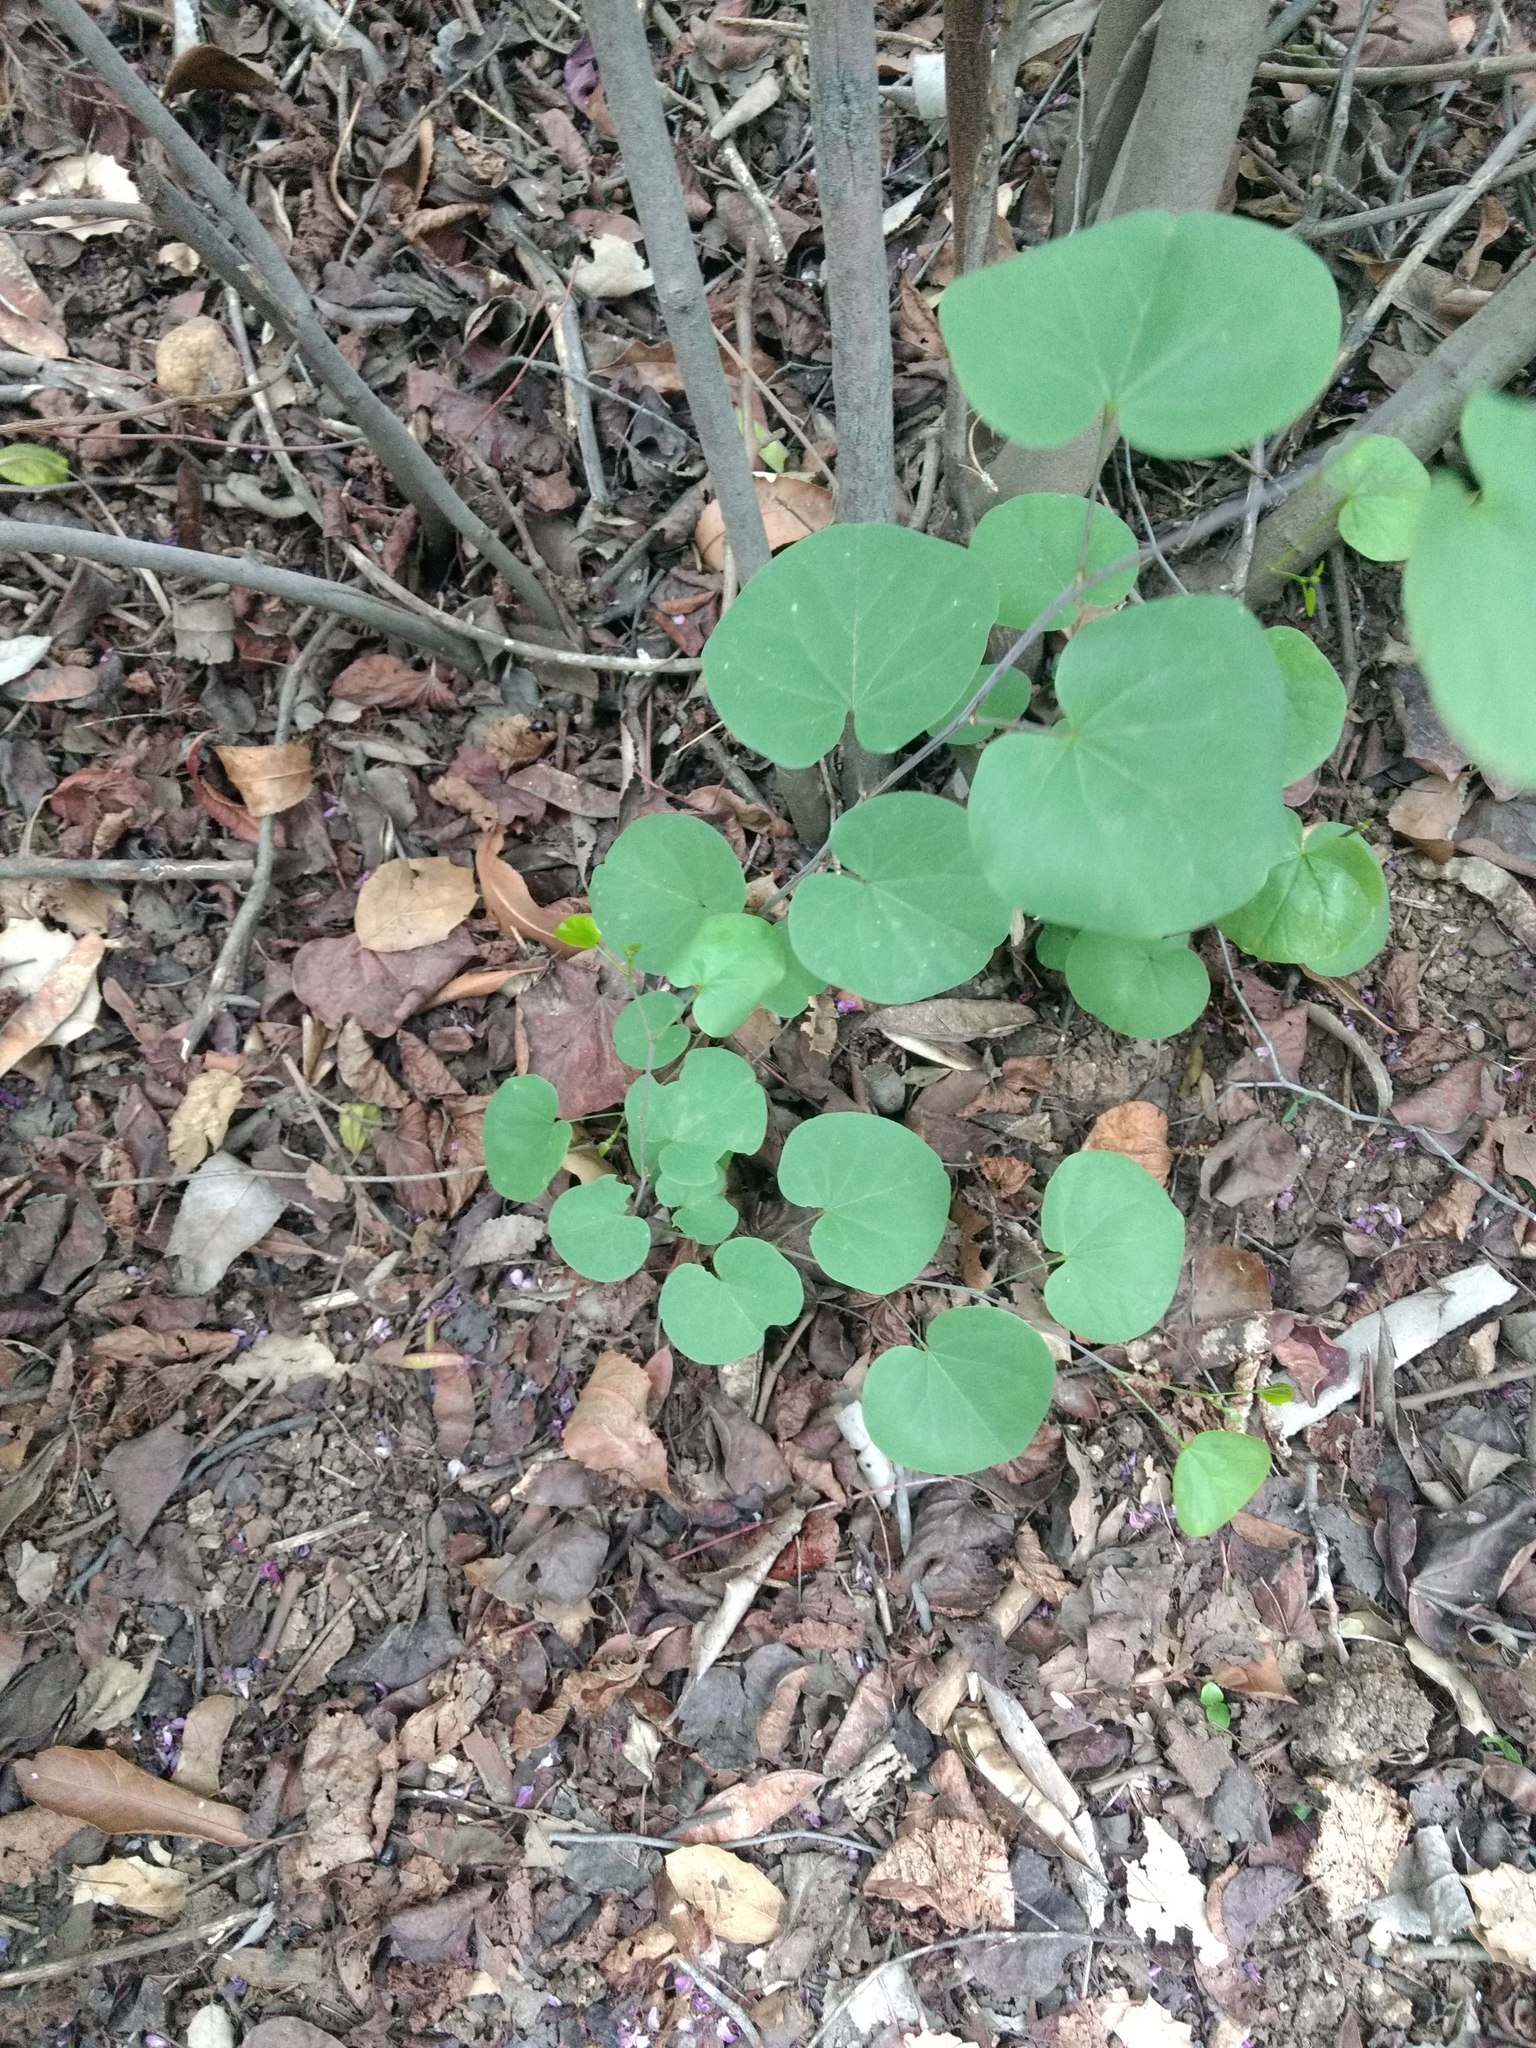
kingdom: Plantae
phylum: Tracheophyta
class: Magnoliopsida
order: Fabales
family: Fabaceae
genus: Cercis
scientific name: Cercis occidentalis
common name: California redbud
